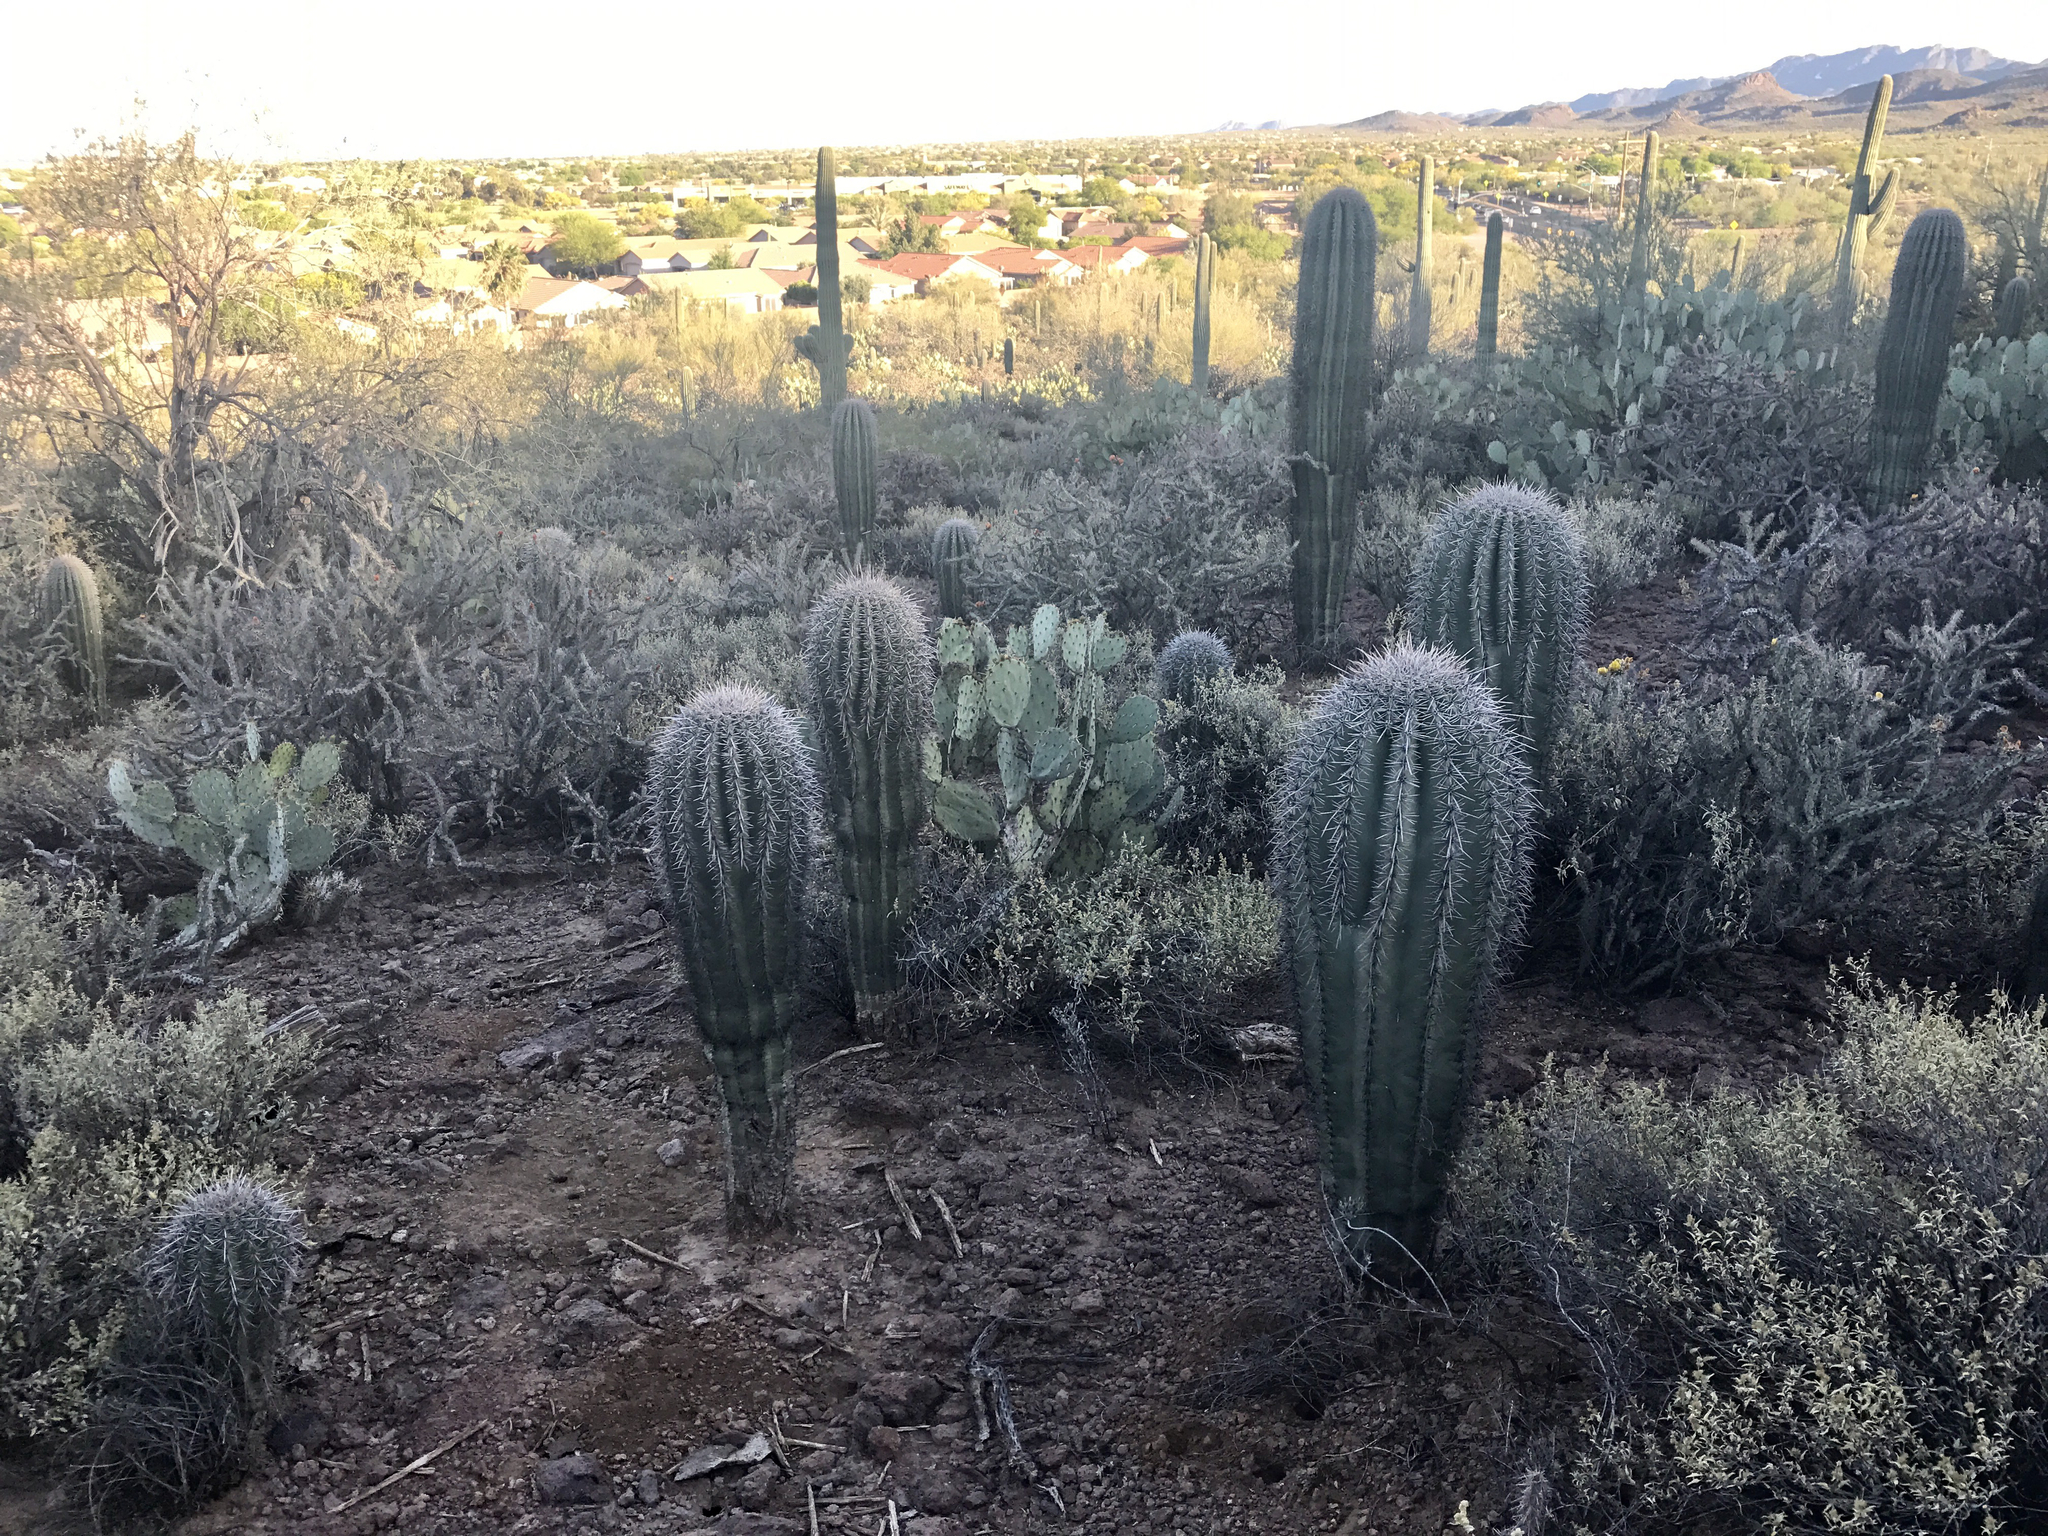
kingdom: Plantae
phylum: Tracheophyta
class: Magnoliopsida
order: Caryophyllales
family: Cactaceae
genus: Carnegiea
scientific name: Carnegiea gigantea
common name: Saguaro
